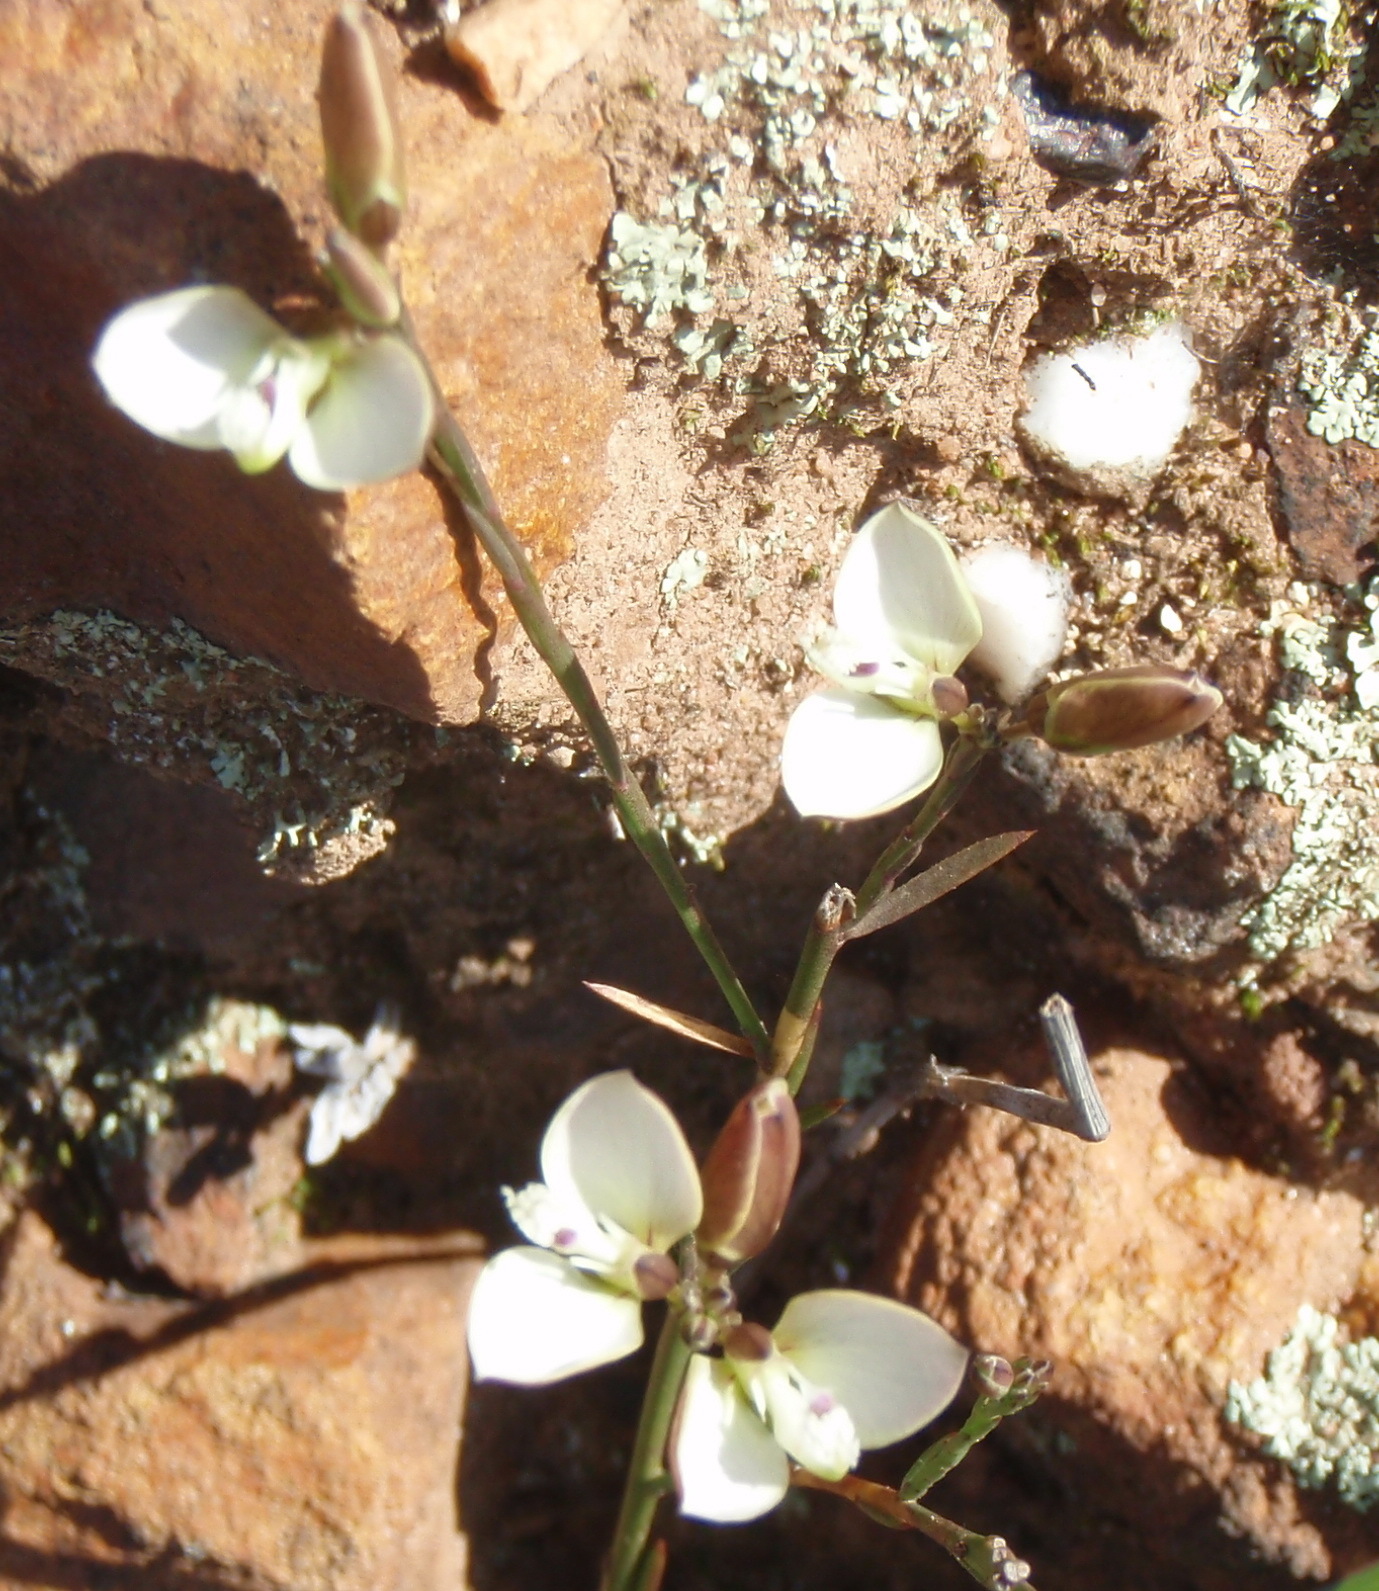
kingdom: Plantae
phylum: Tracheophyta
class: Magnoliopsida
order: Fabales
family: Polygalaceae
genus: Polygala
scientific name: Polygala microlopha
